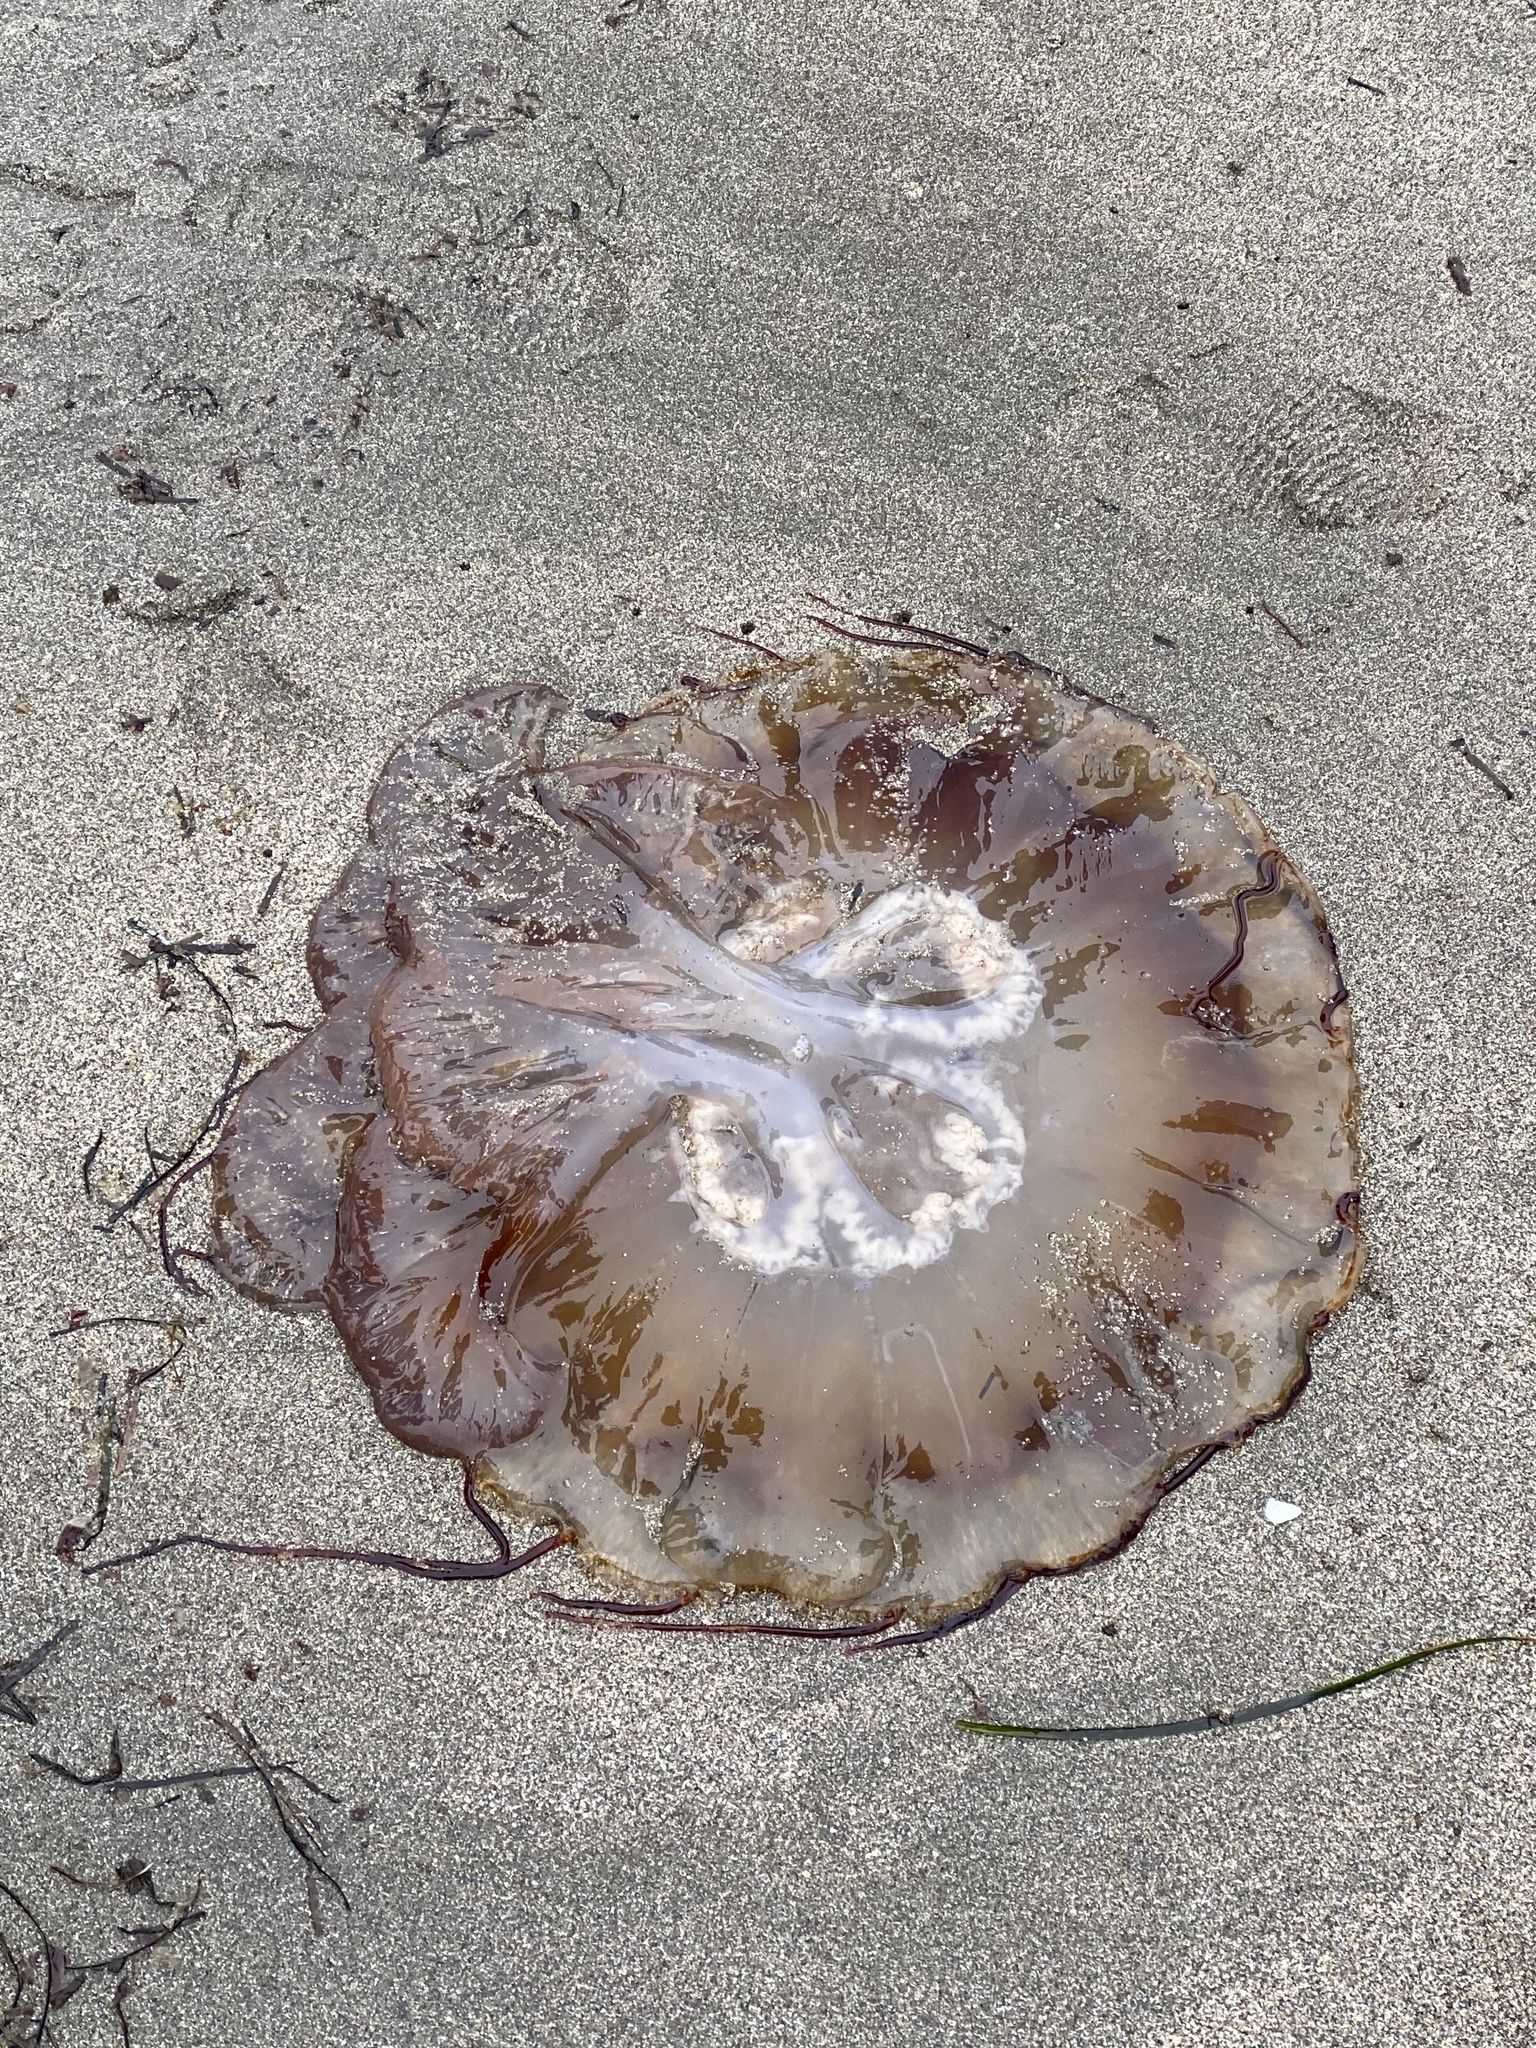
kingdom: Animalia
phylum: Cnidaria
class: Scyphozoa
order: Semaeostomeae
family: Pelagiidae
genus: Chrysaora
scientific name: Chrysaora fuscescens
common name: Sea nettle
